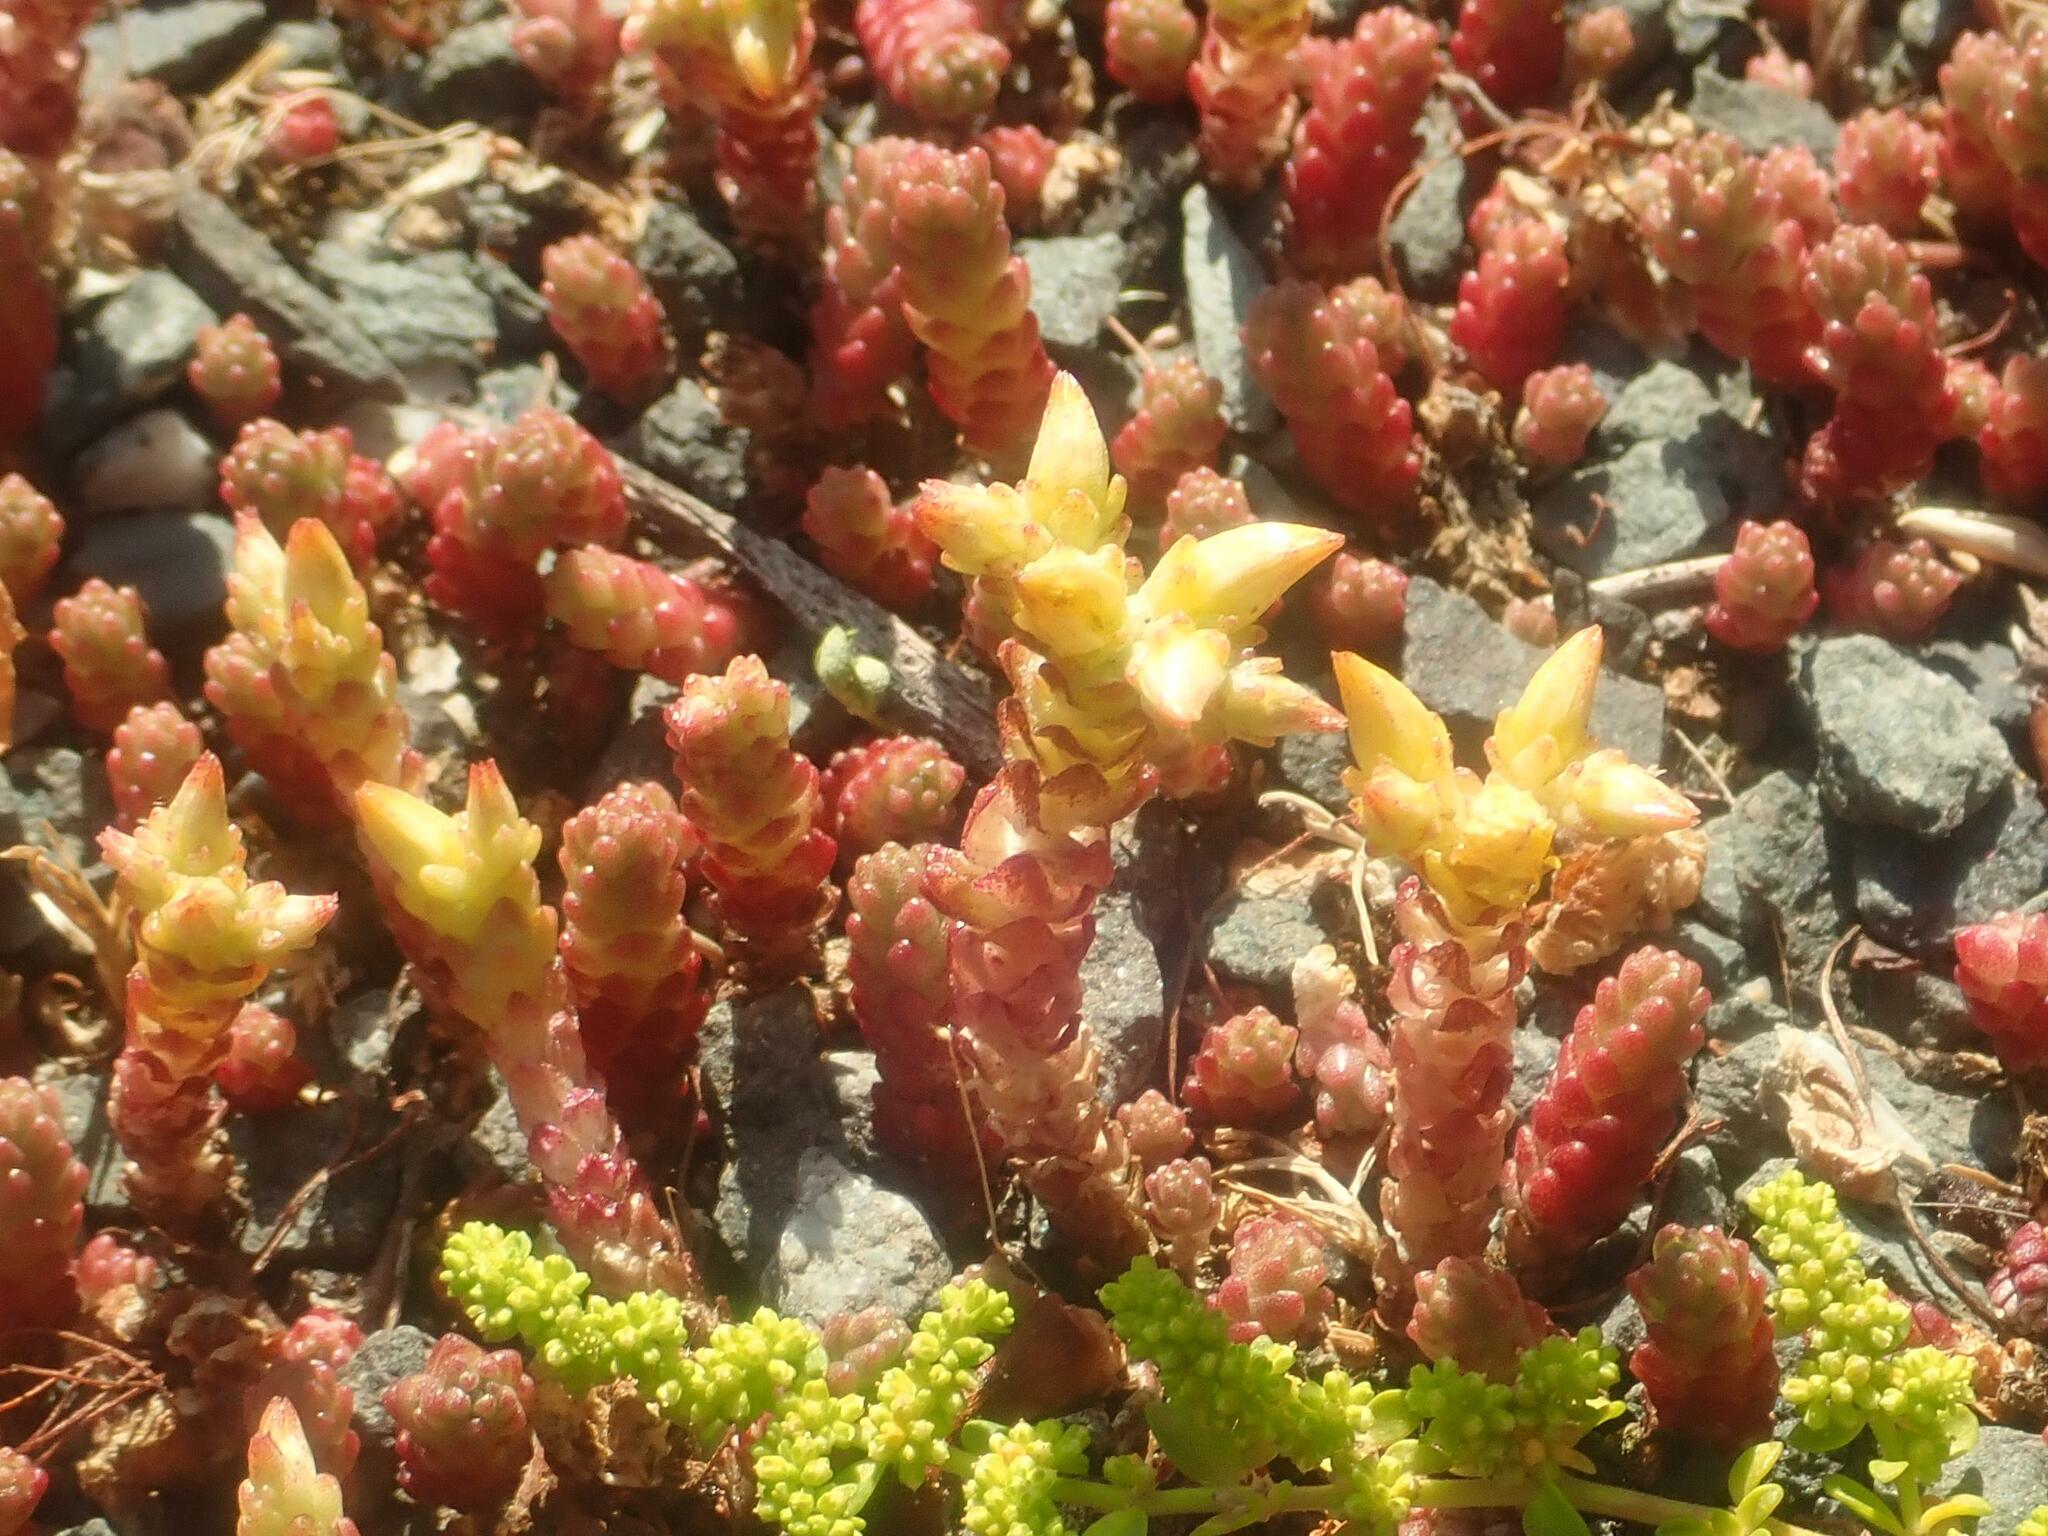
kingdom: Plantae
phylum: Tracheophyta
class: Magnoliopsida
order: Saxifragales
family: Crassulaceae
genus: Sedum
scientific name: Sedum acre
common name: Biting stonecrop
